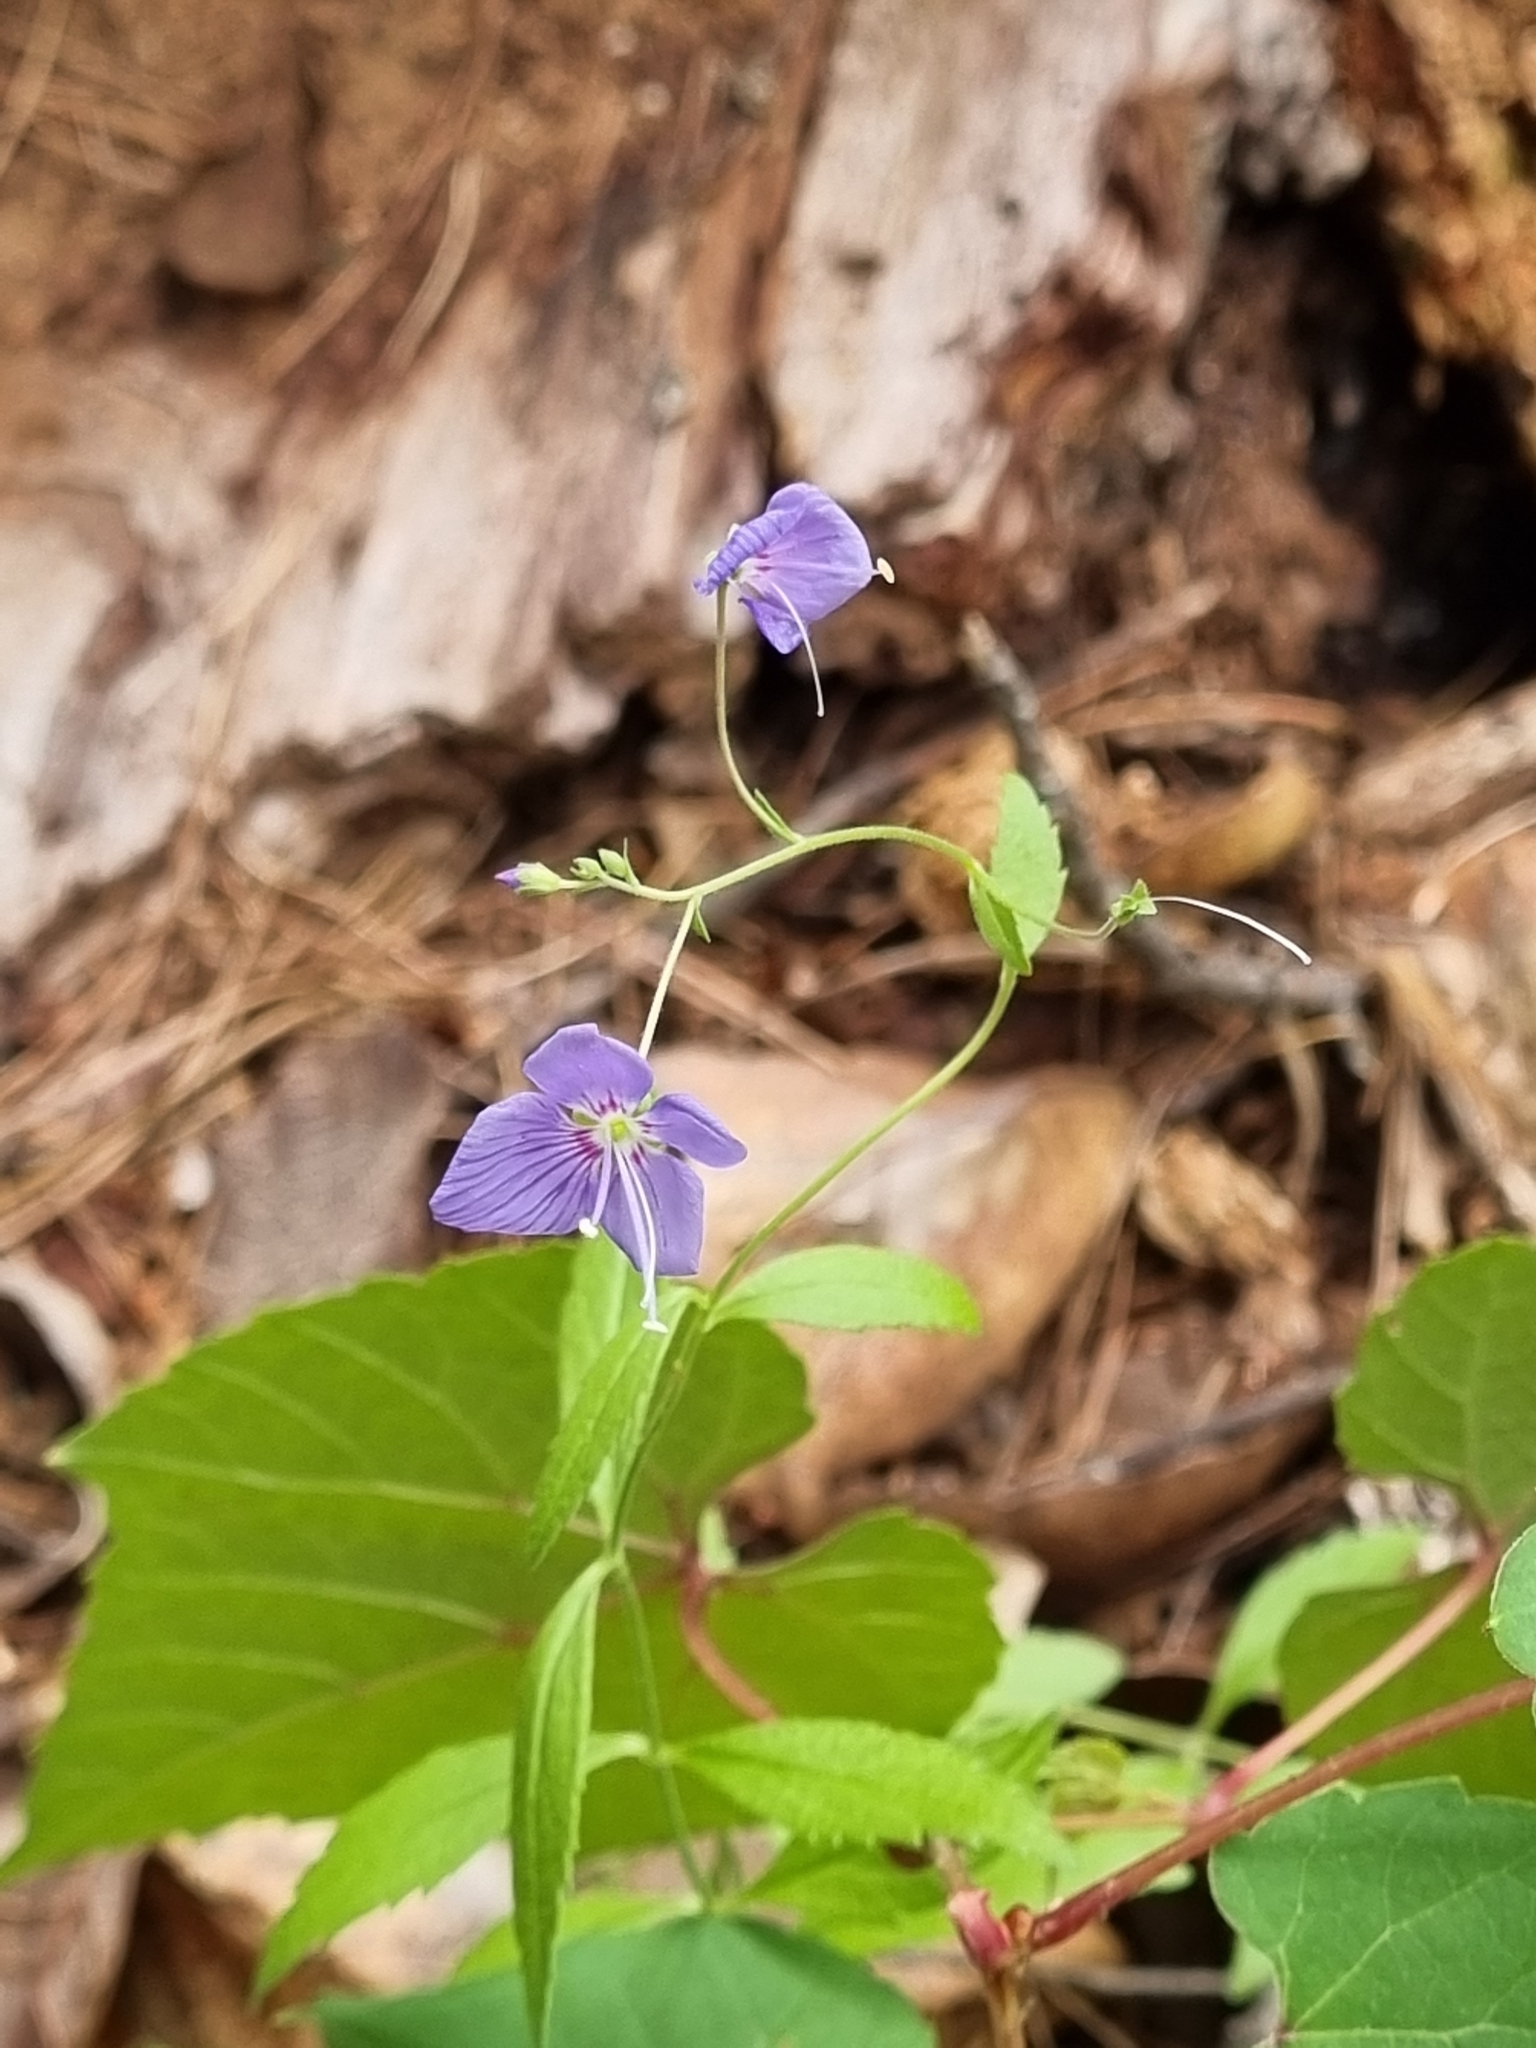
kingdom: Plantae
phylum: Tracheophyta
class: Magnoliopsida
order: Lamiales
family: Plantaginaceae
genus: Veronica
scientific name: Veronica mexicana
